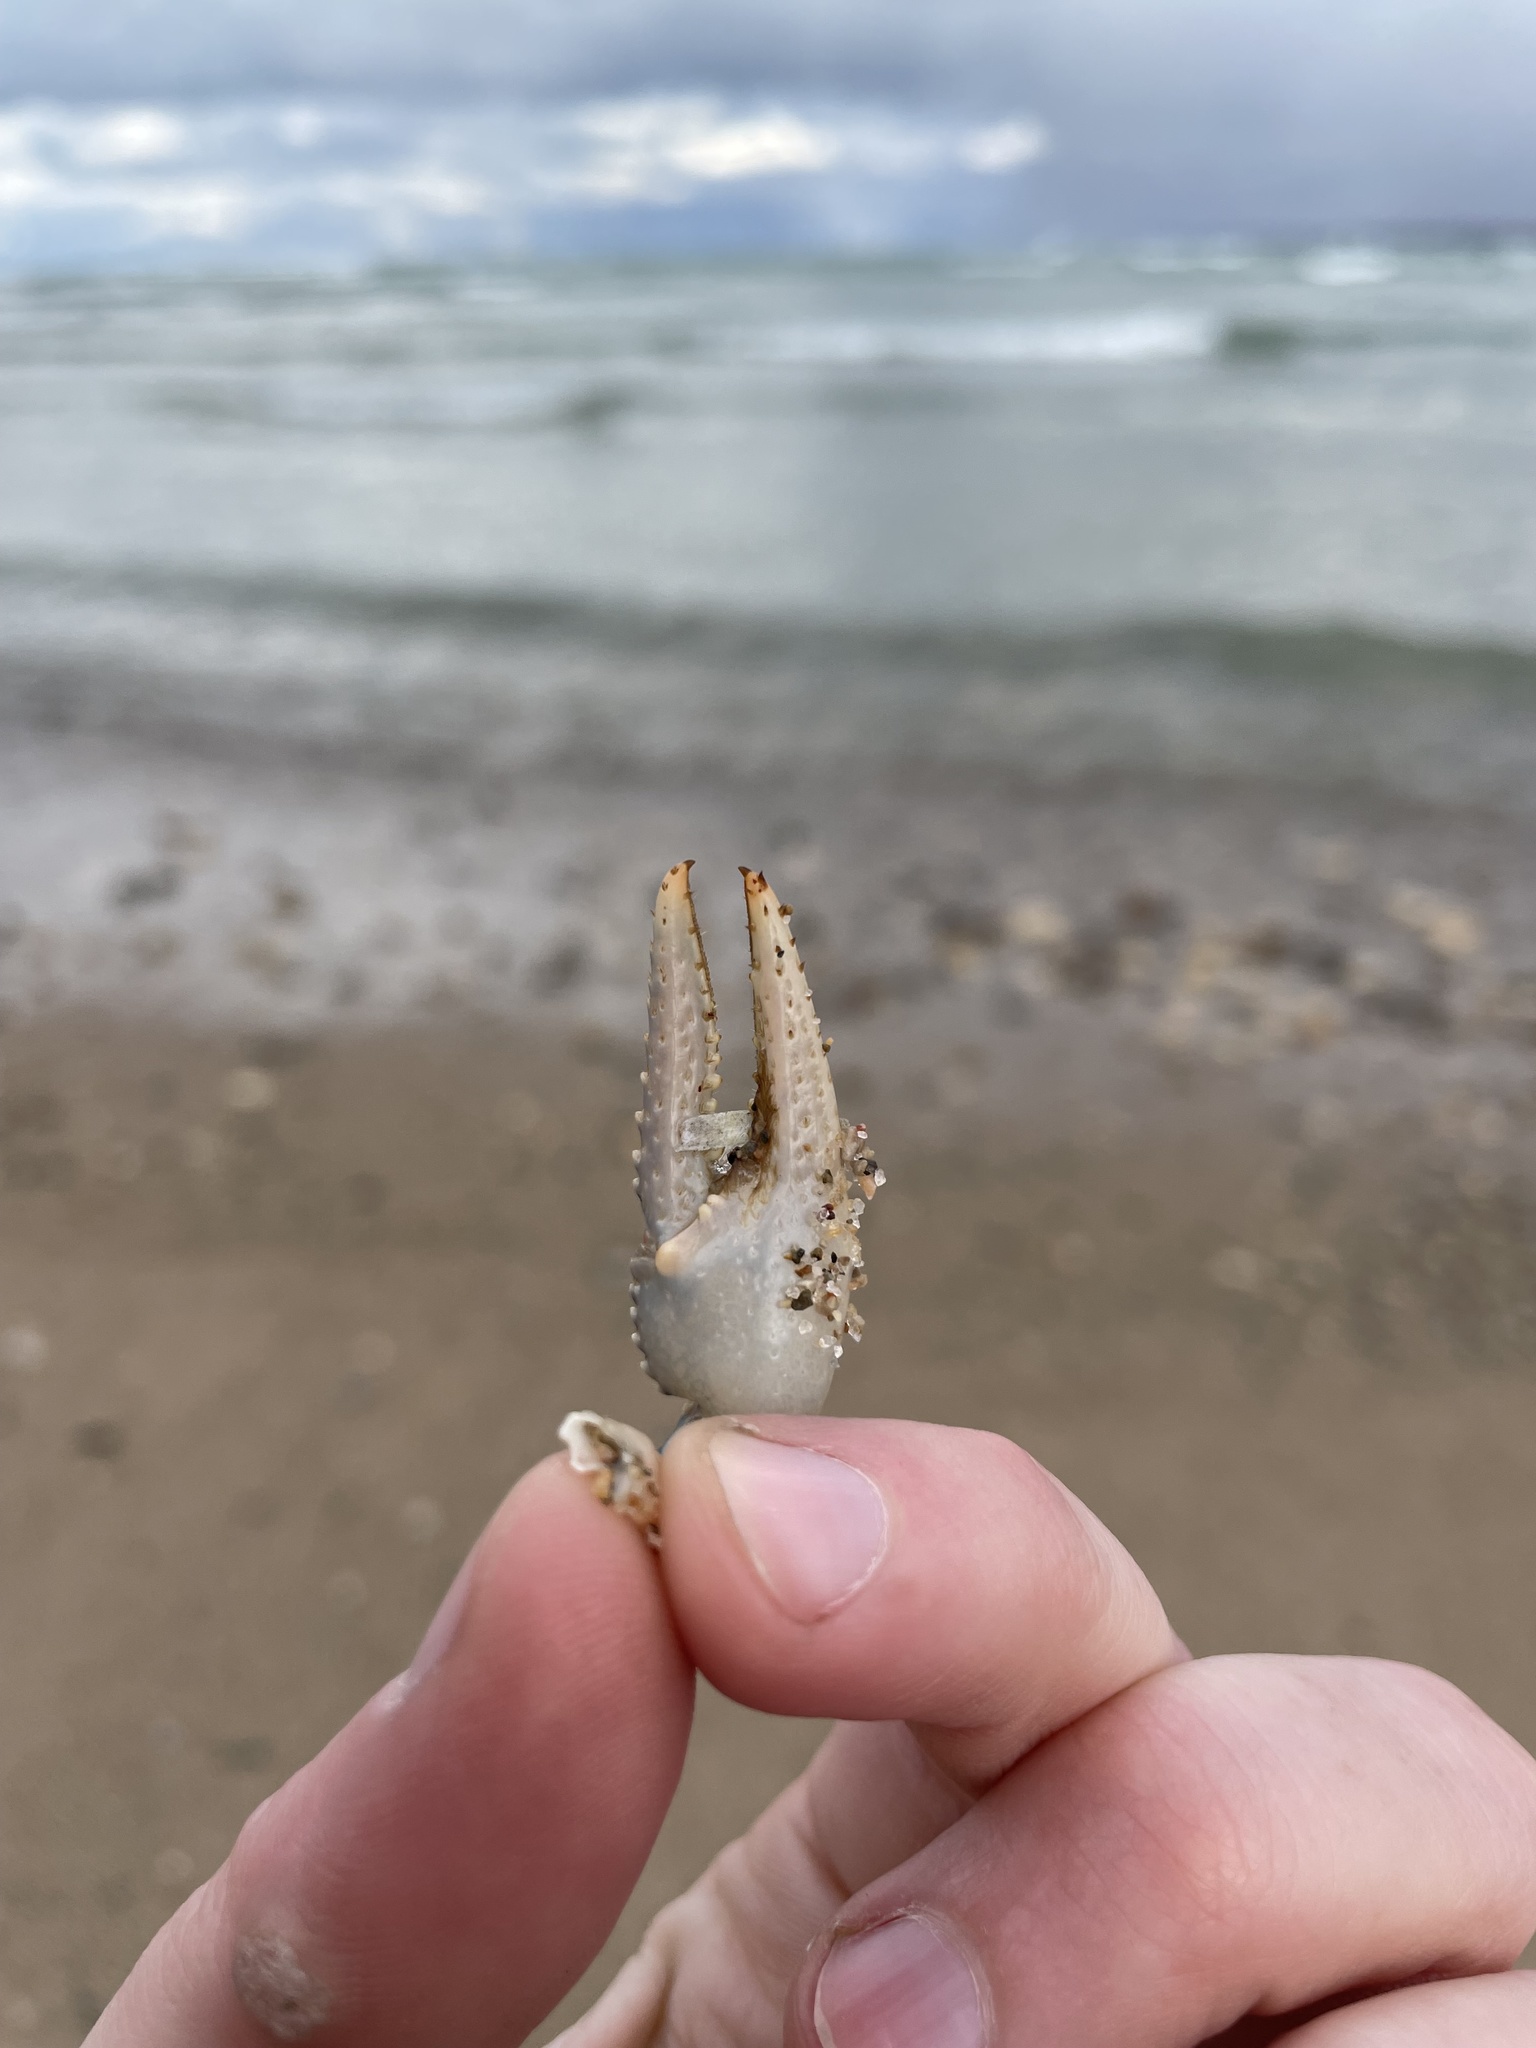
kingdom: Animalia
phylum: Arthropoda
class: Malacostraca
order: Decapoda
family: Cambaridae
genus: Faxonius
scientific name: Faxonius virilis
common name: Virile crayfish
